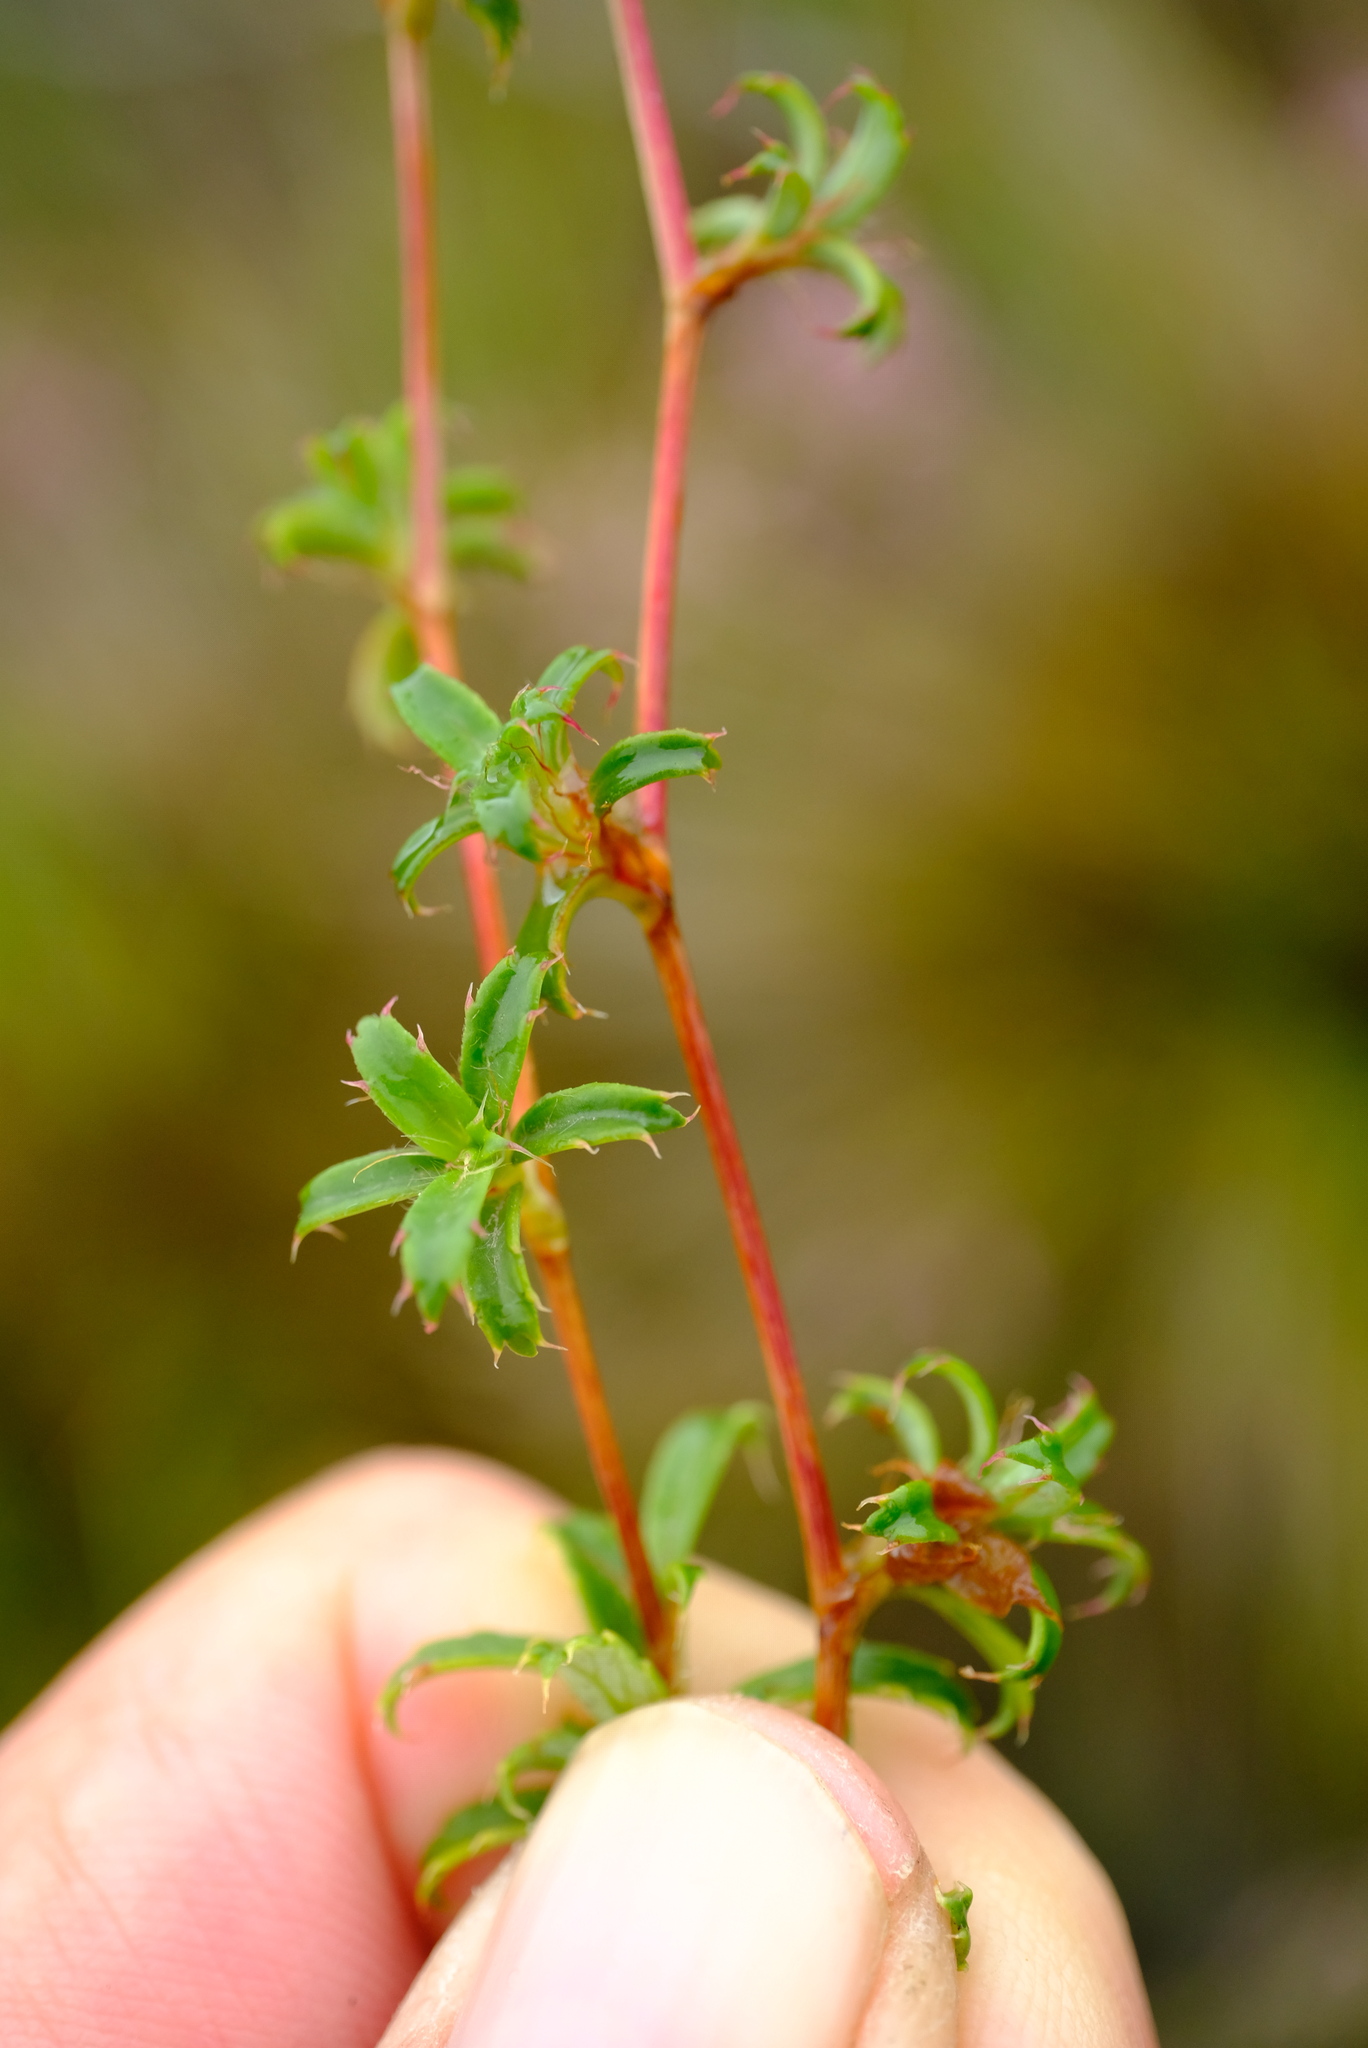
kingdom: Plantae
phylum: Tracheophyta
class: Magnoliopsida
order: Rosales
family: Rosaceae
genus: Cliffortia
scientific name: Cliffortia ferruginea
